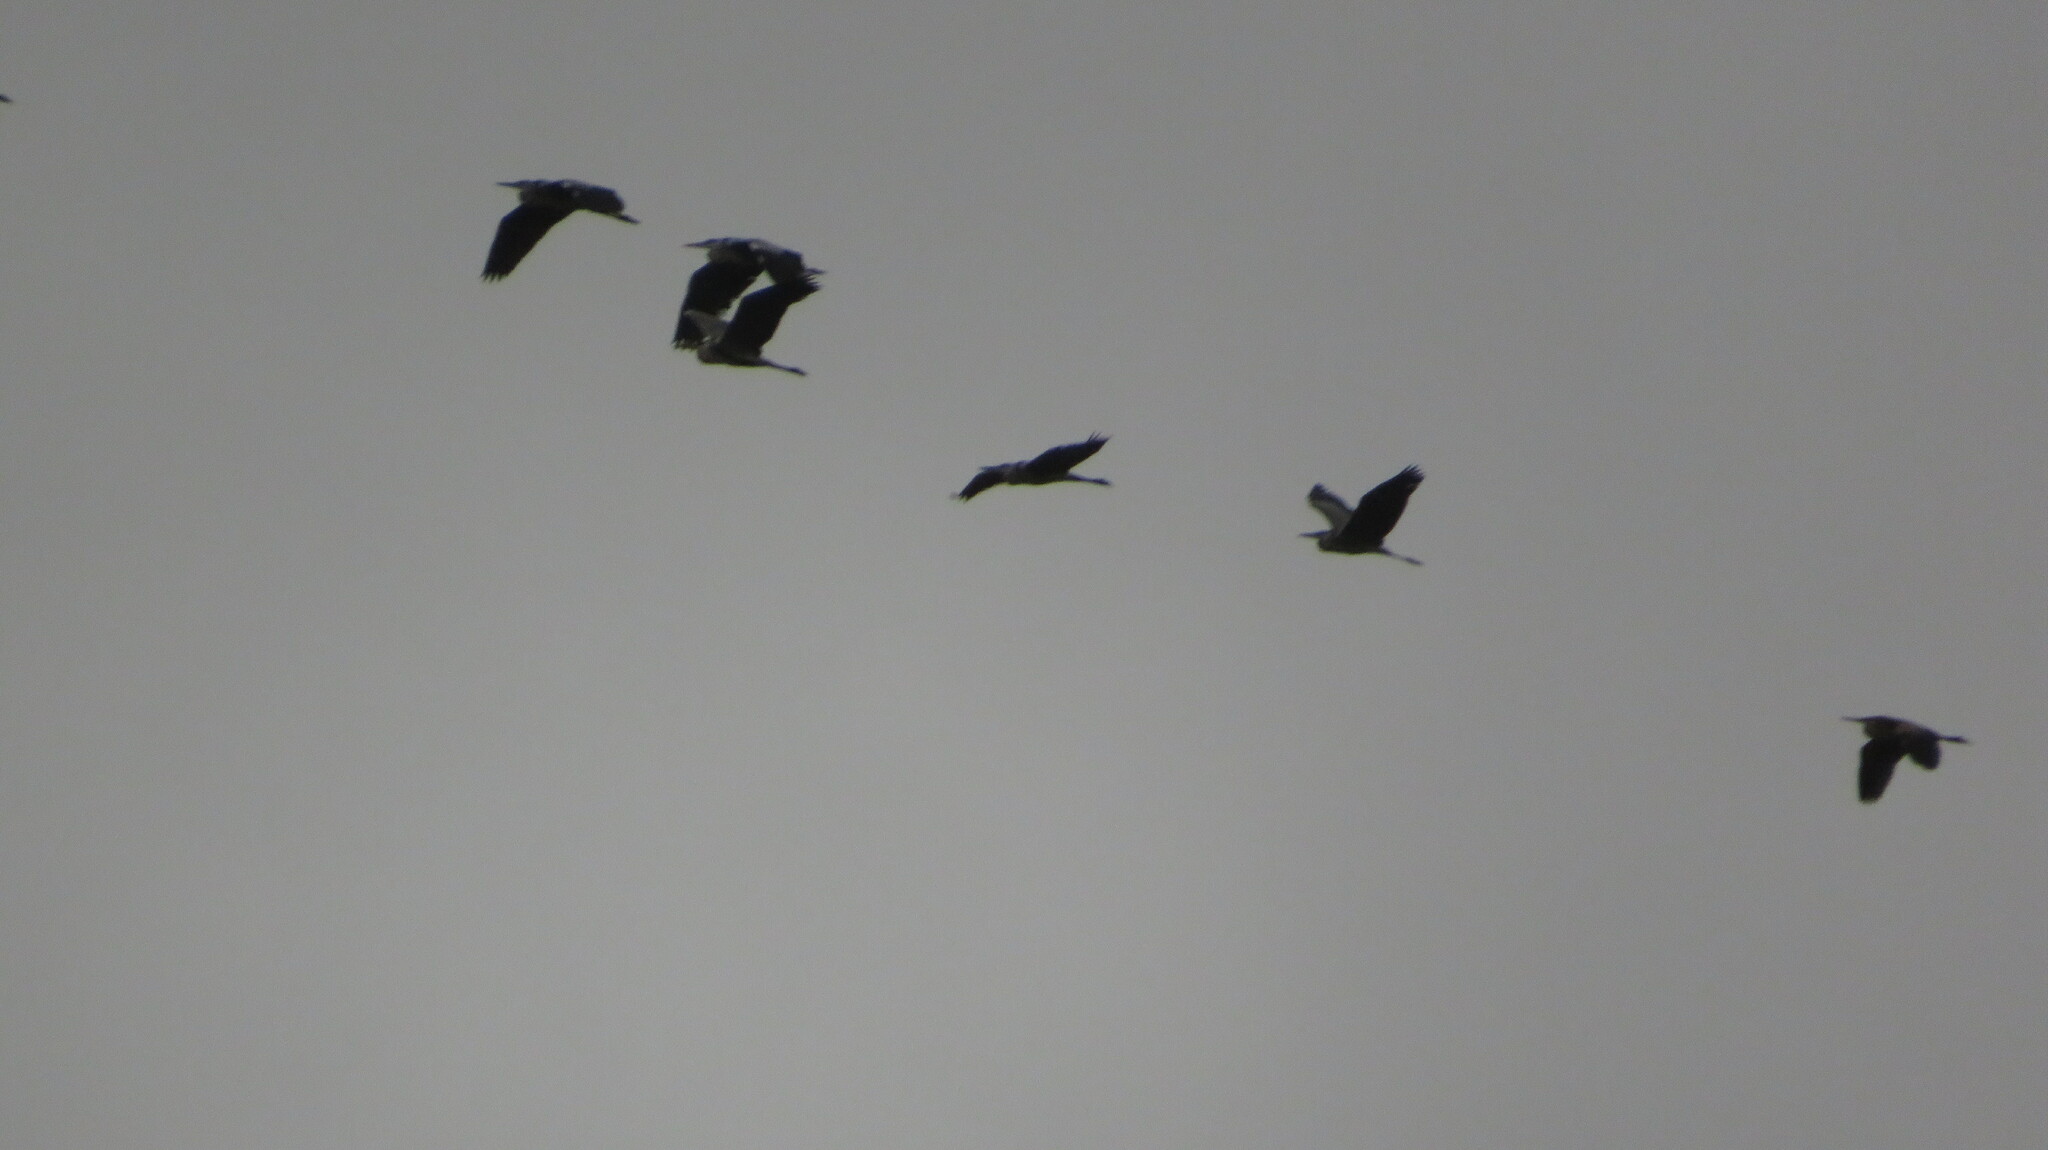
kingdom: Animalia
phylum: Chordata
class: Aves
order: Pelecaniformes
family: Ardeidae
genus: Ardea
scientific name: Ardea cinerea
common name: Grey heron
